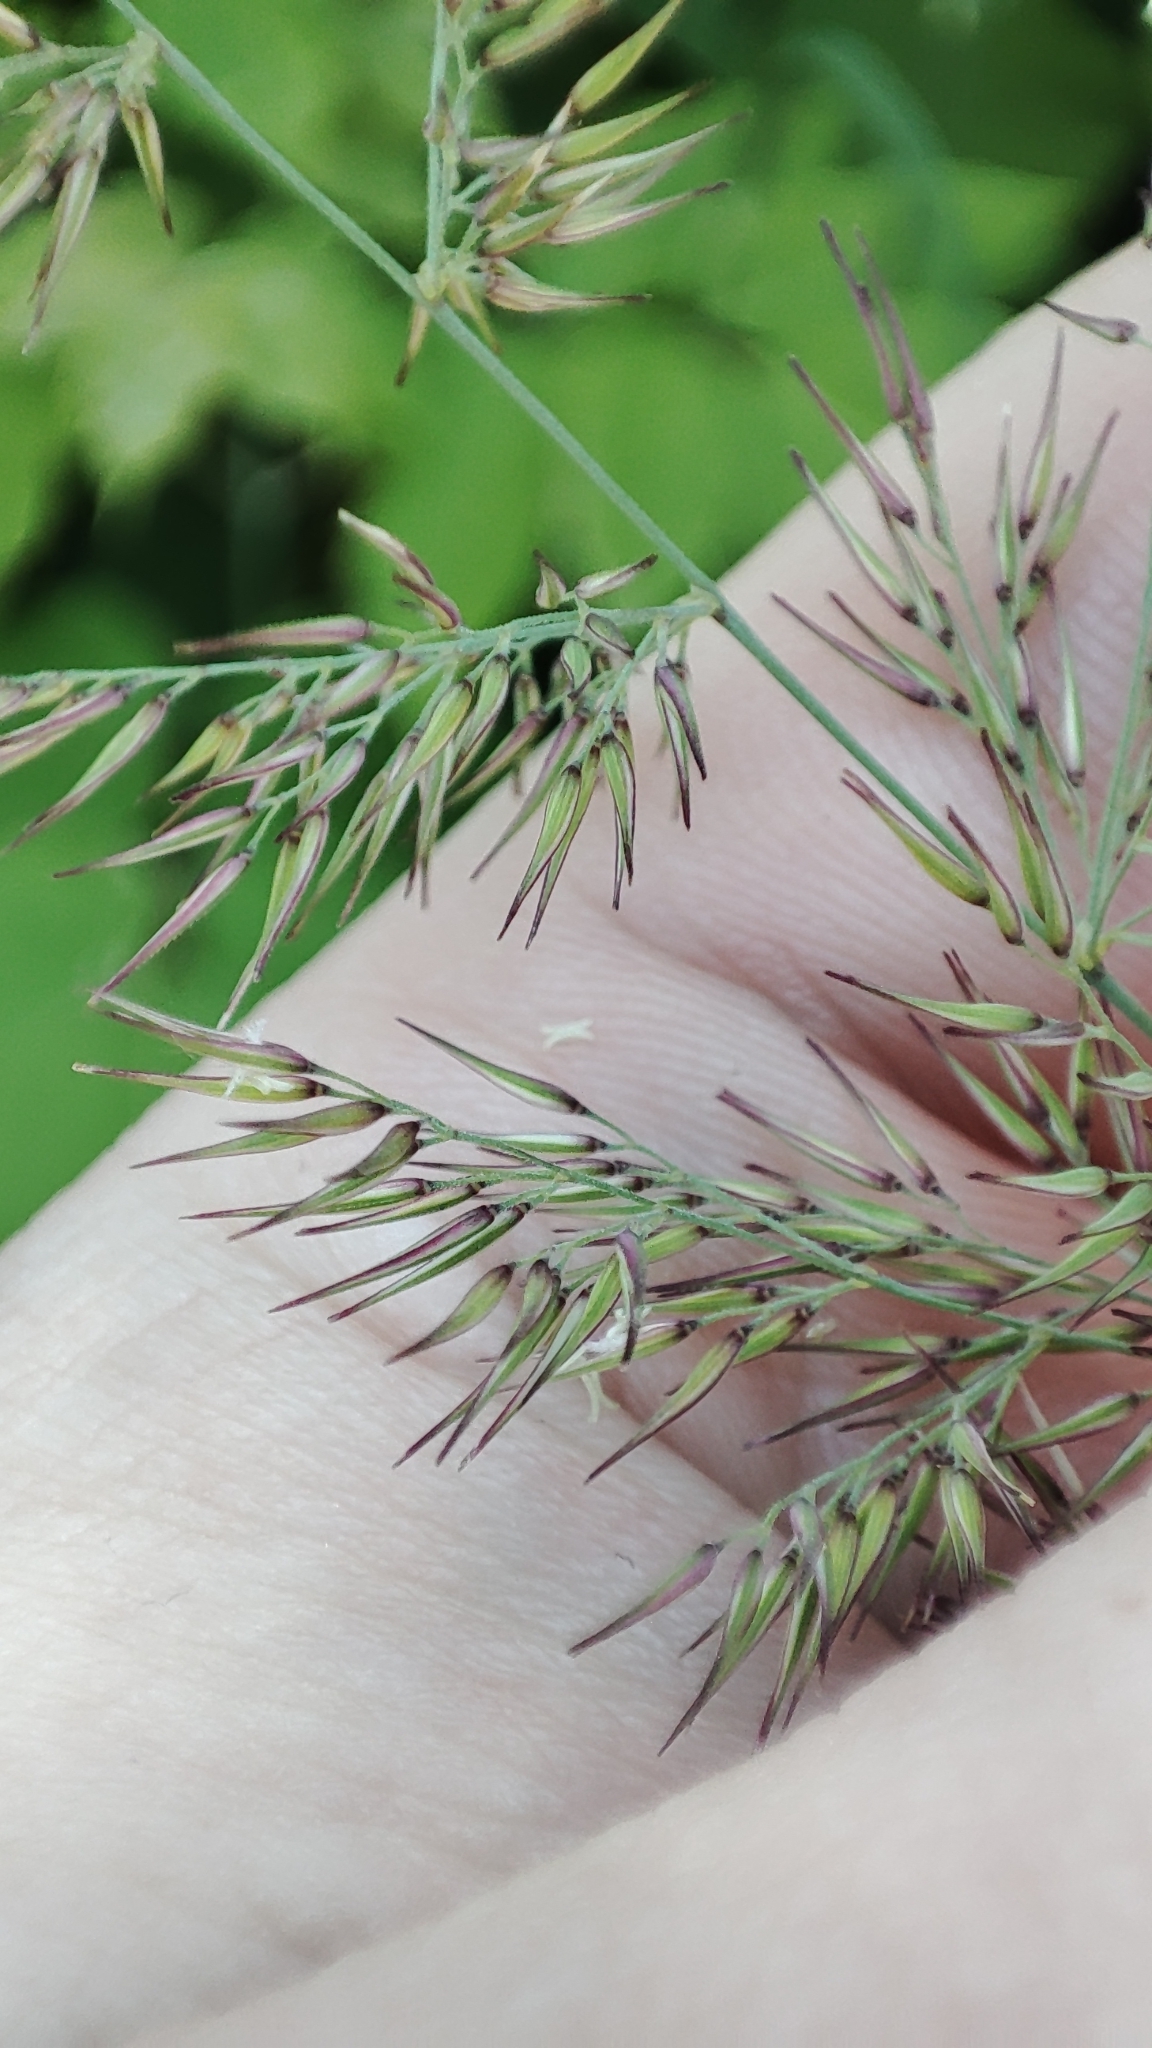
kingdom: Plantae
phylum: Tracheophyta
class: Liliopsida
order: Poales
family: Poaceae
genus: Calamagrostis
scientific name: Calamagrostis epigejos
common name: Wood small-reed
